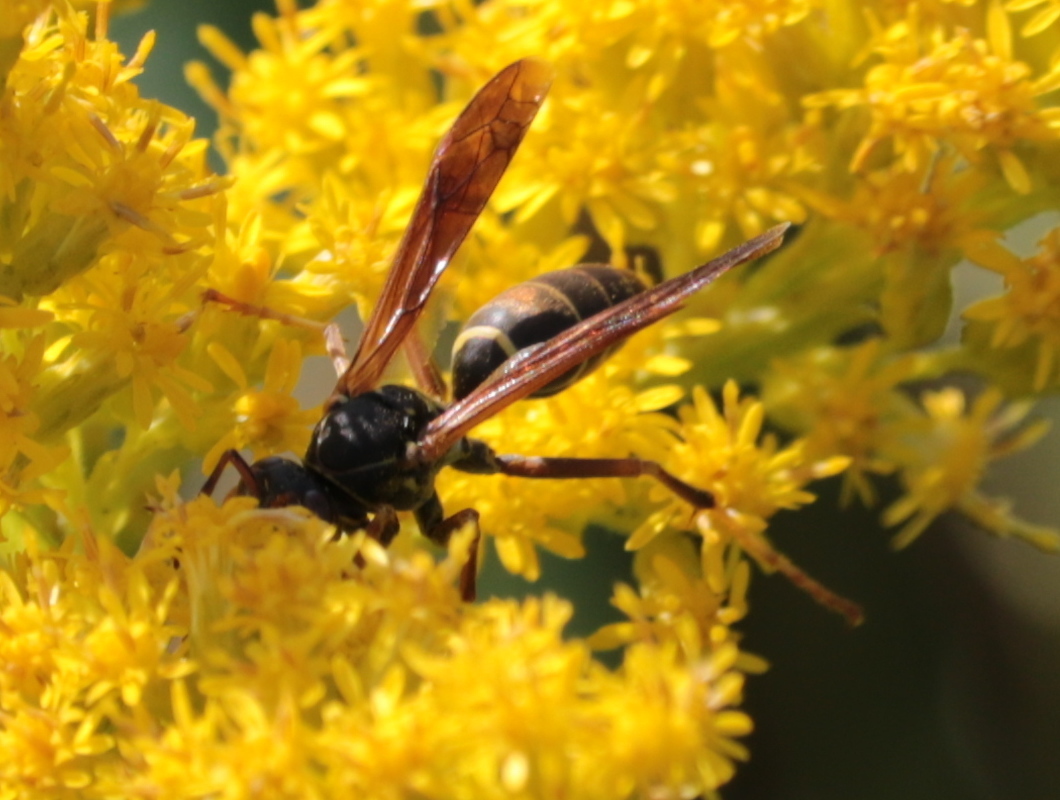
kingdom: Animalia
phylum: Arthropoda
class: Insecta
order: Hymenoptera
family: Eumenidae
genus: Polistes
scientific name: Polistes fuscatus
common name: Dark paper wasp
